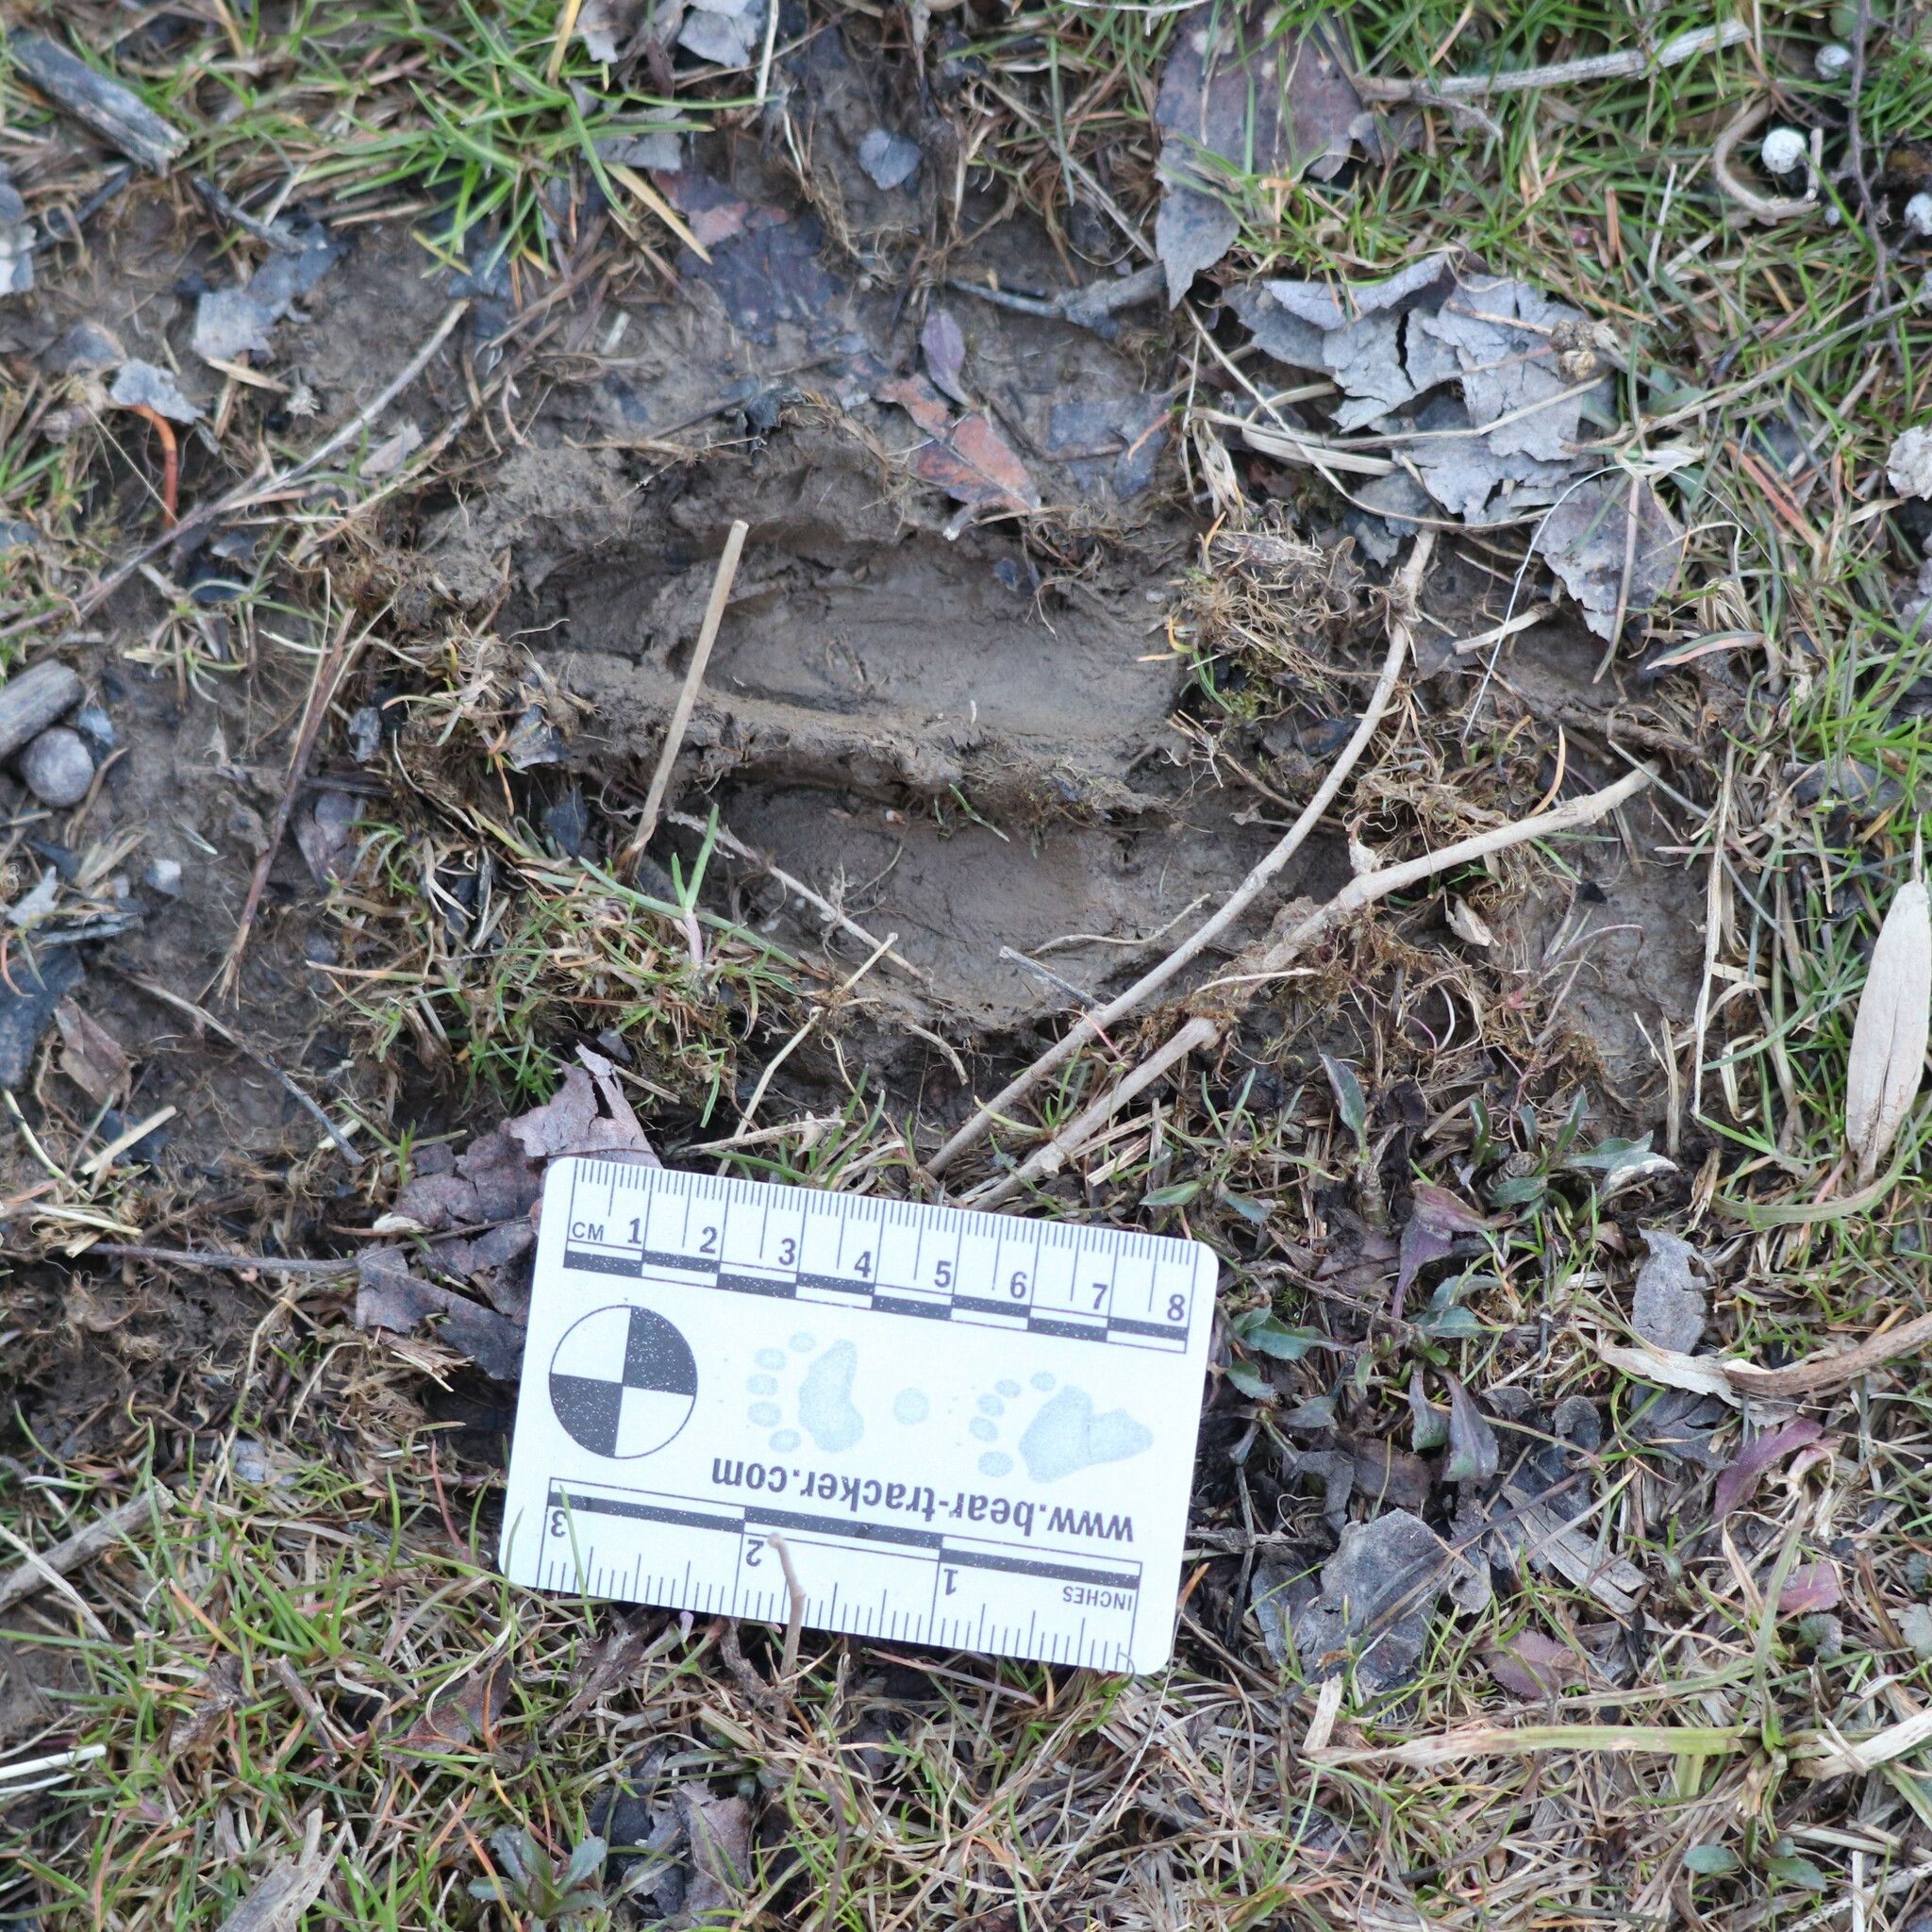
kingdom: Animalia
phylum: Chordata
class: Mammalia
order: Artiodactyla
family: Cervidae
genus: Odocoileus
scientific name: Odocoileus virginianus
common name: White-tailed deer
